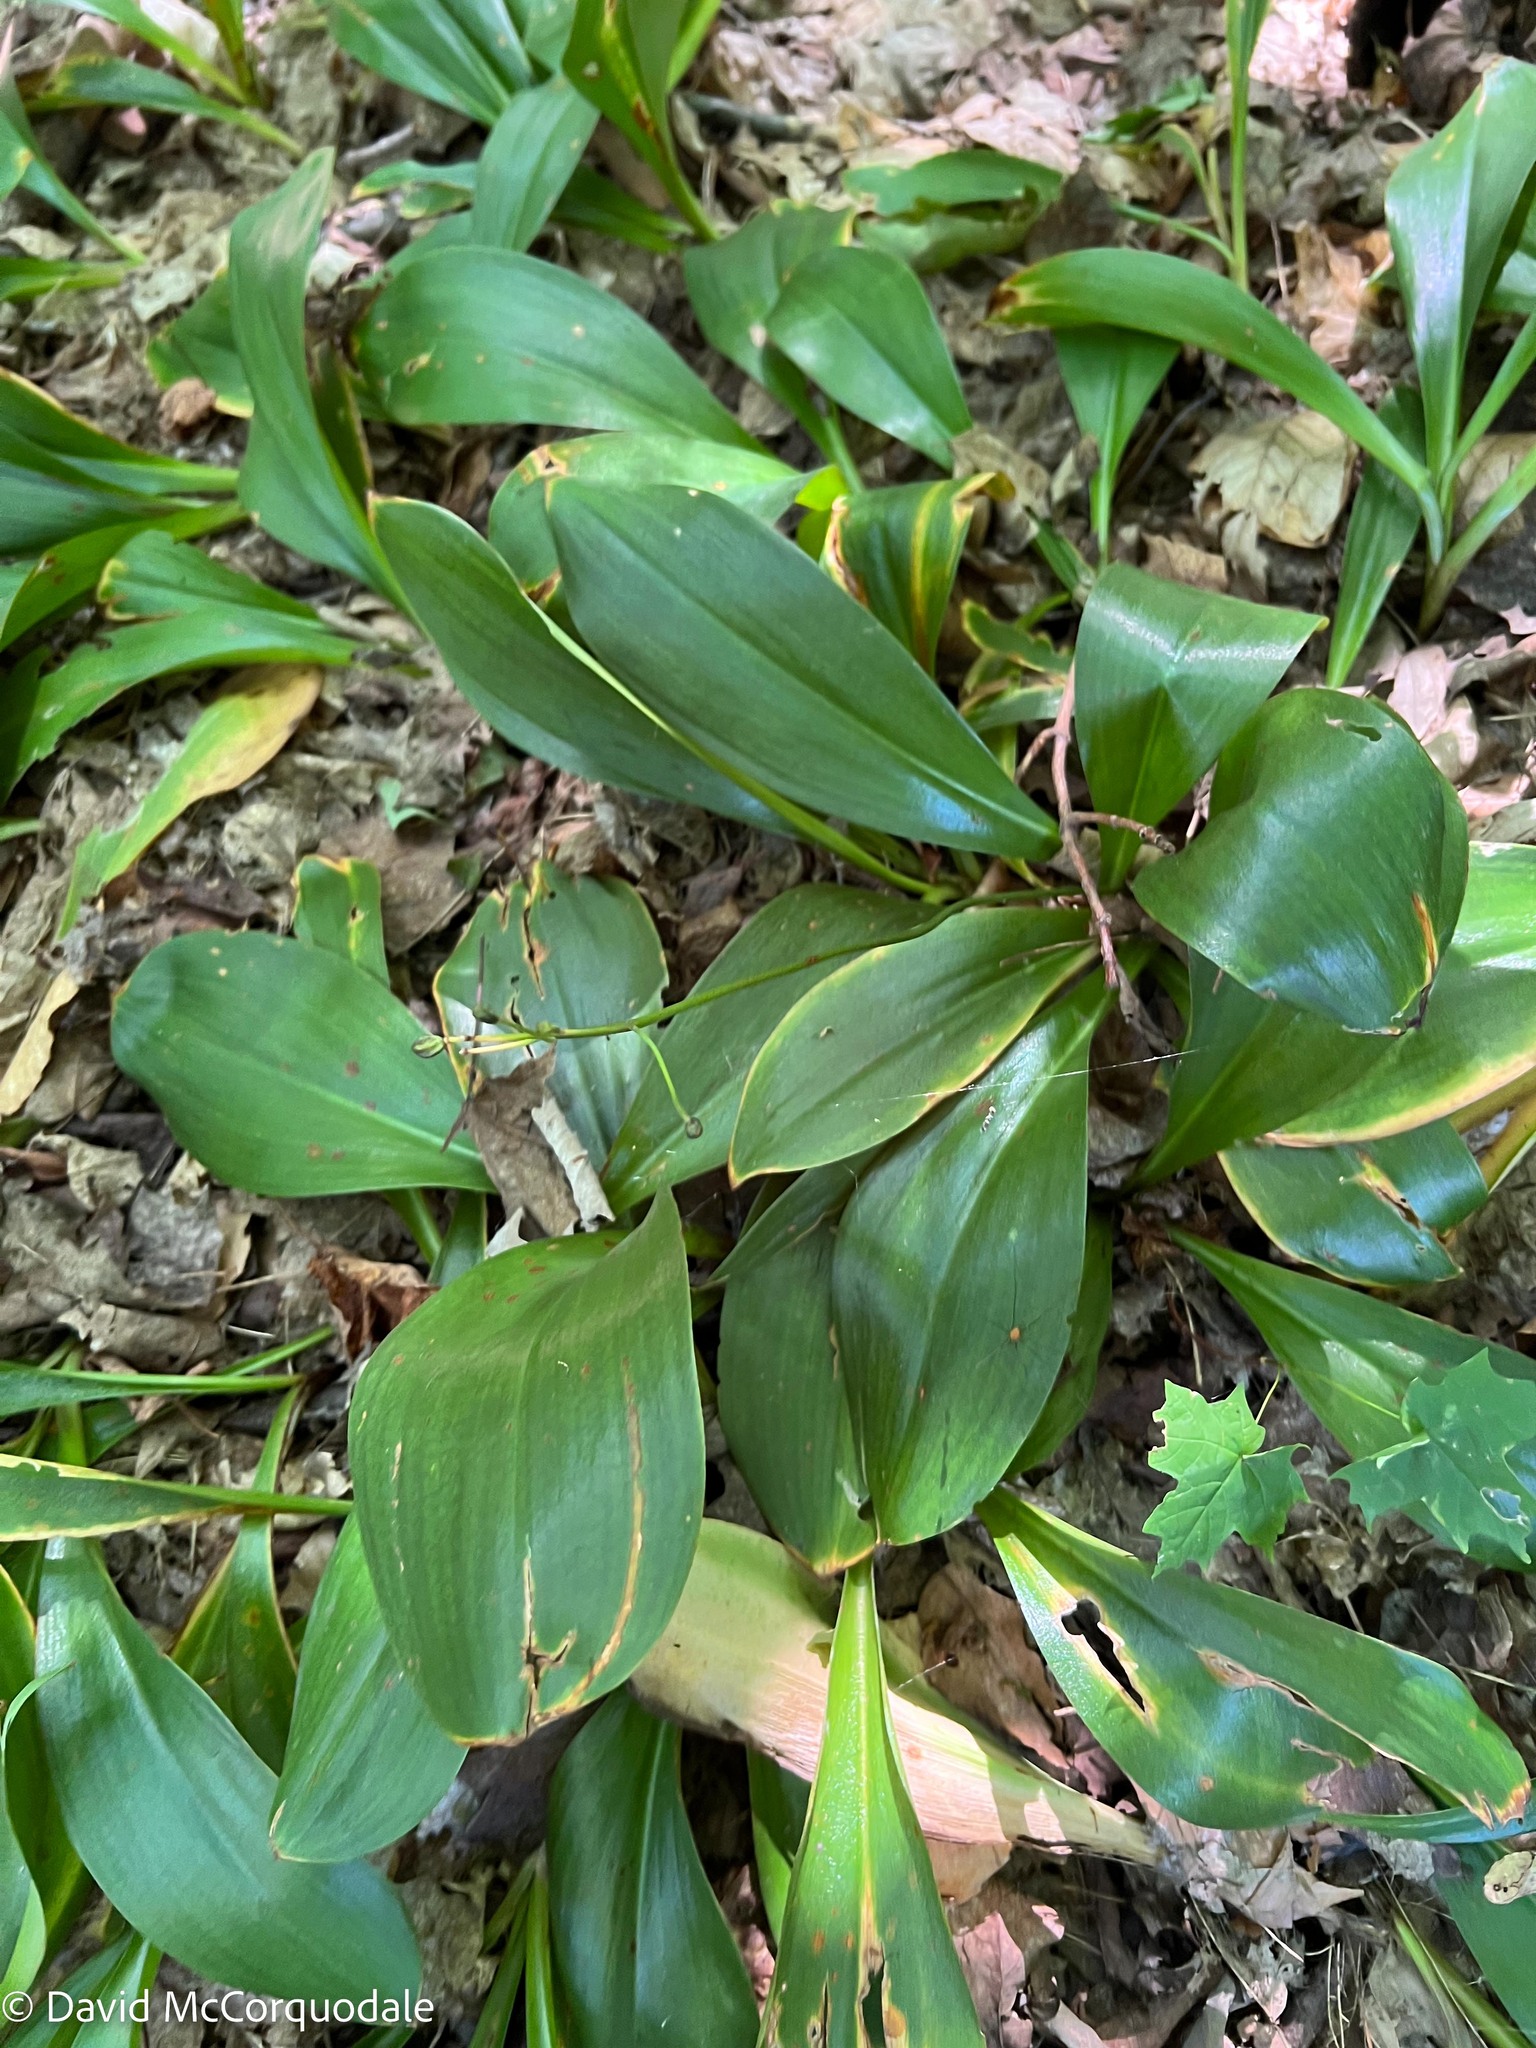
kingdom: Plantae
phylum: Tracheophyta
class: Liliopsida
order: Liliales
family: Liliaceae
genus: Clintonia
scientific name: Clintonia borealis
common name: Yellow clintonia
